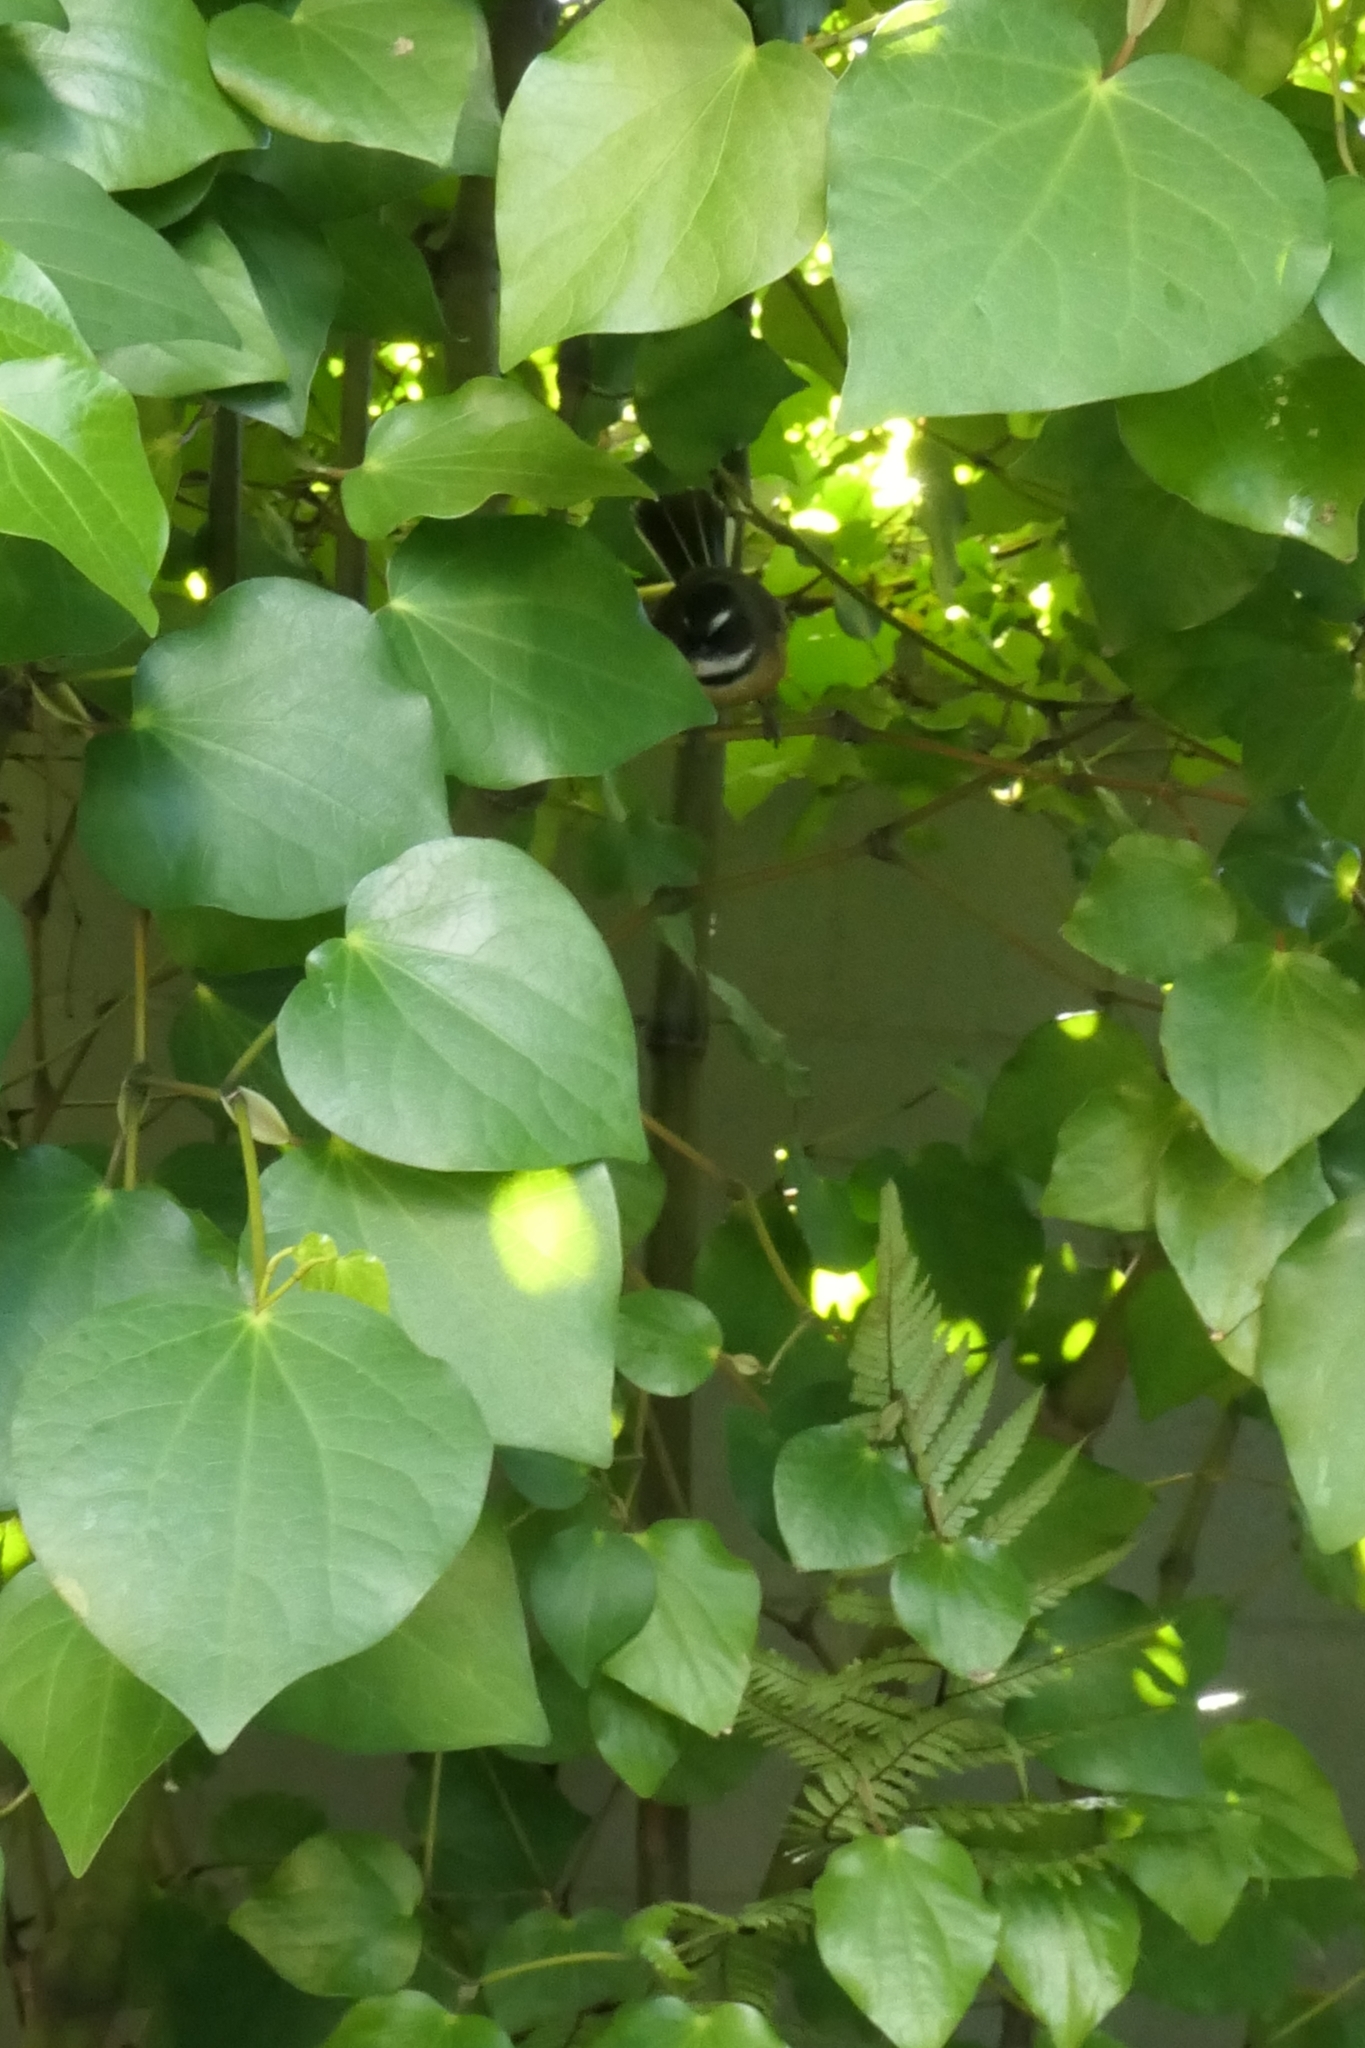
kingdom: Animalia
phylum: Chordata
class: Aves
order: Passeriformes
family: Rhipiduridae
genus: Rhipidura
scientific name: Rhipidura fuliginosa
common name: New zealand fantail
